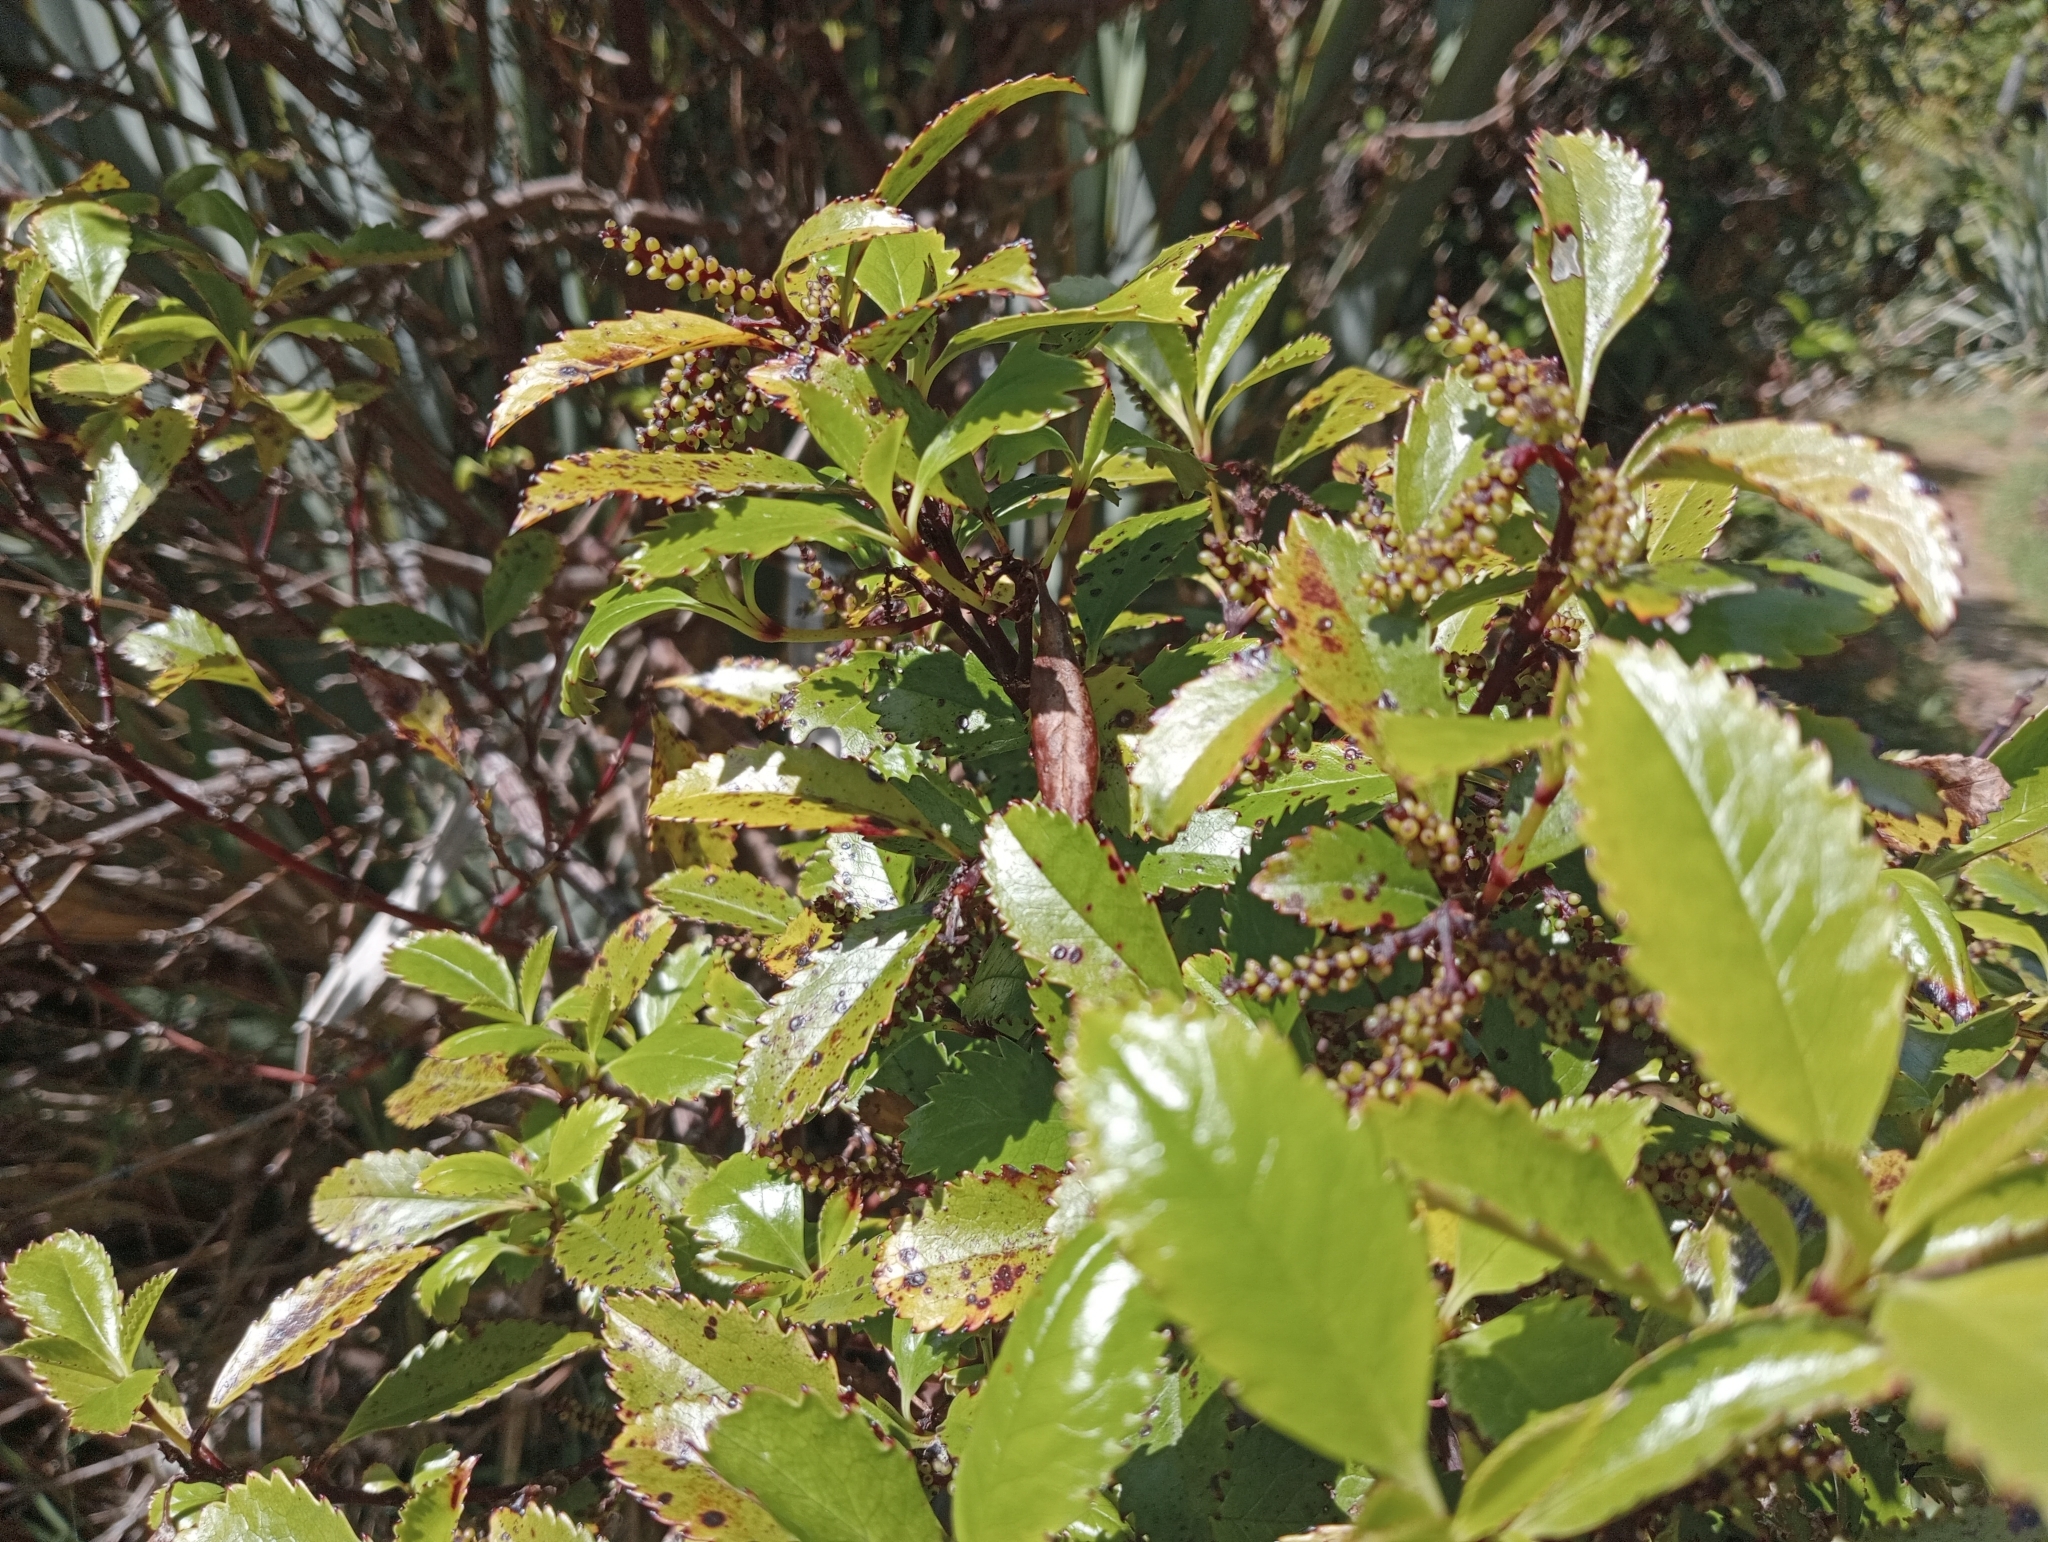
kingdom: Plantae
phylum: Tracheophyta
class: Magnoliopsida
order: Chloranthales
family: Chloranthaceae
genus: Ascarina
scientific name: Ascarina lucida
